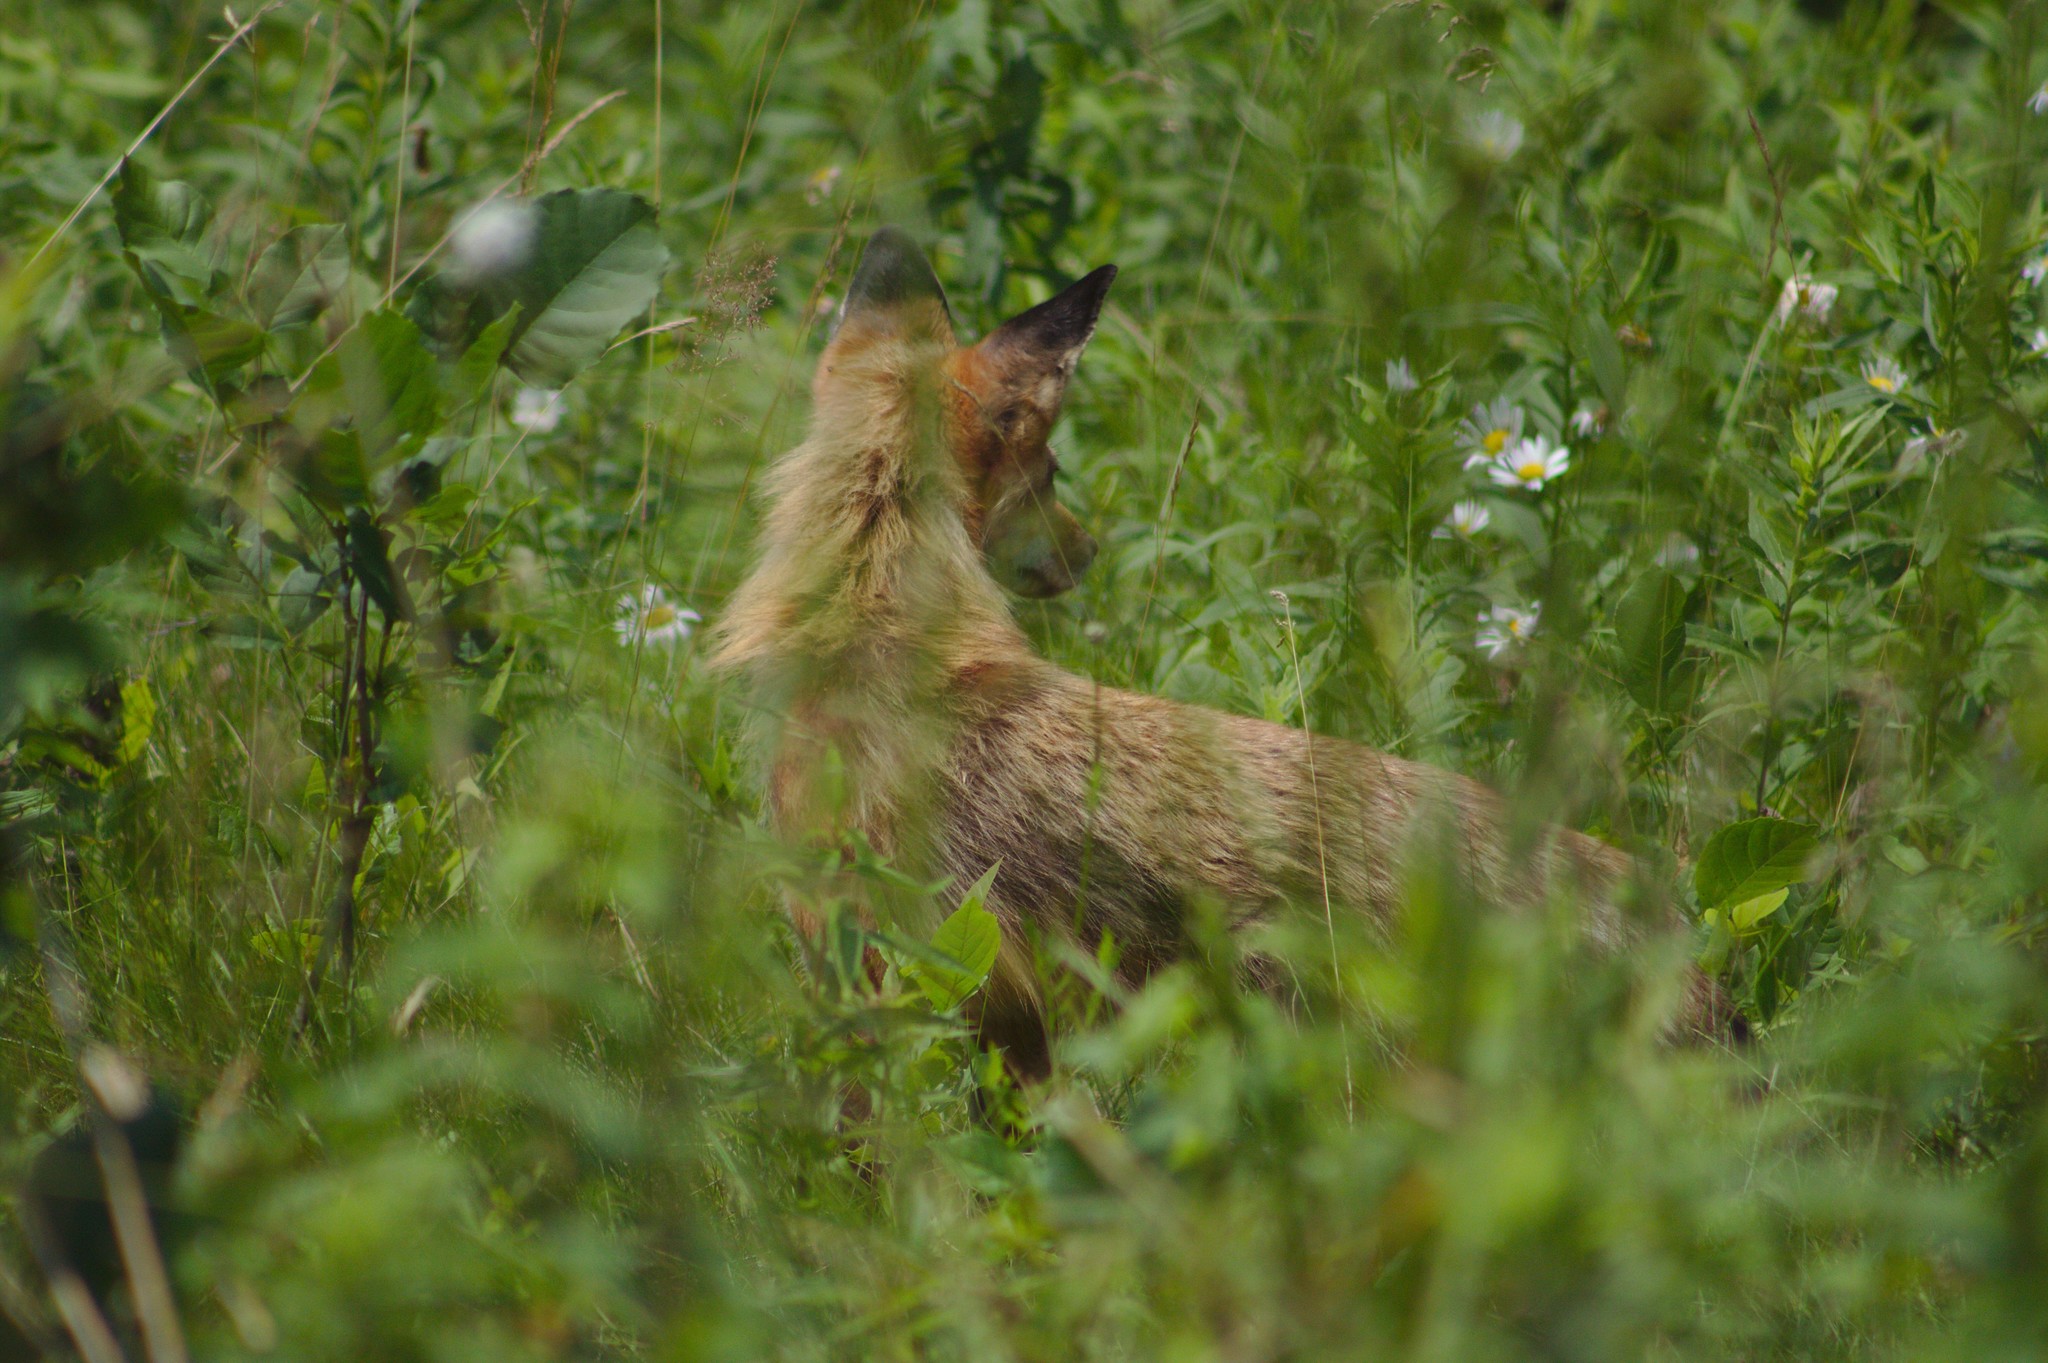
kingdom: Animalia
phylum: Chordata
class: Mammalia
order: Carnivora
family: Canidae
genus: Vulpes
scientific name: Vulpes vulpes
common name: Red fox
